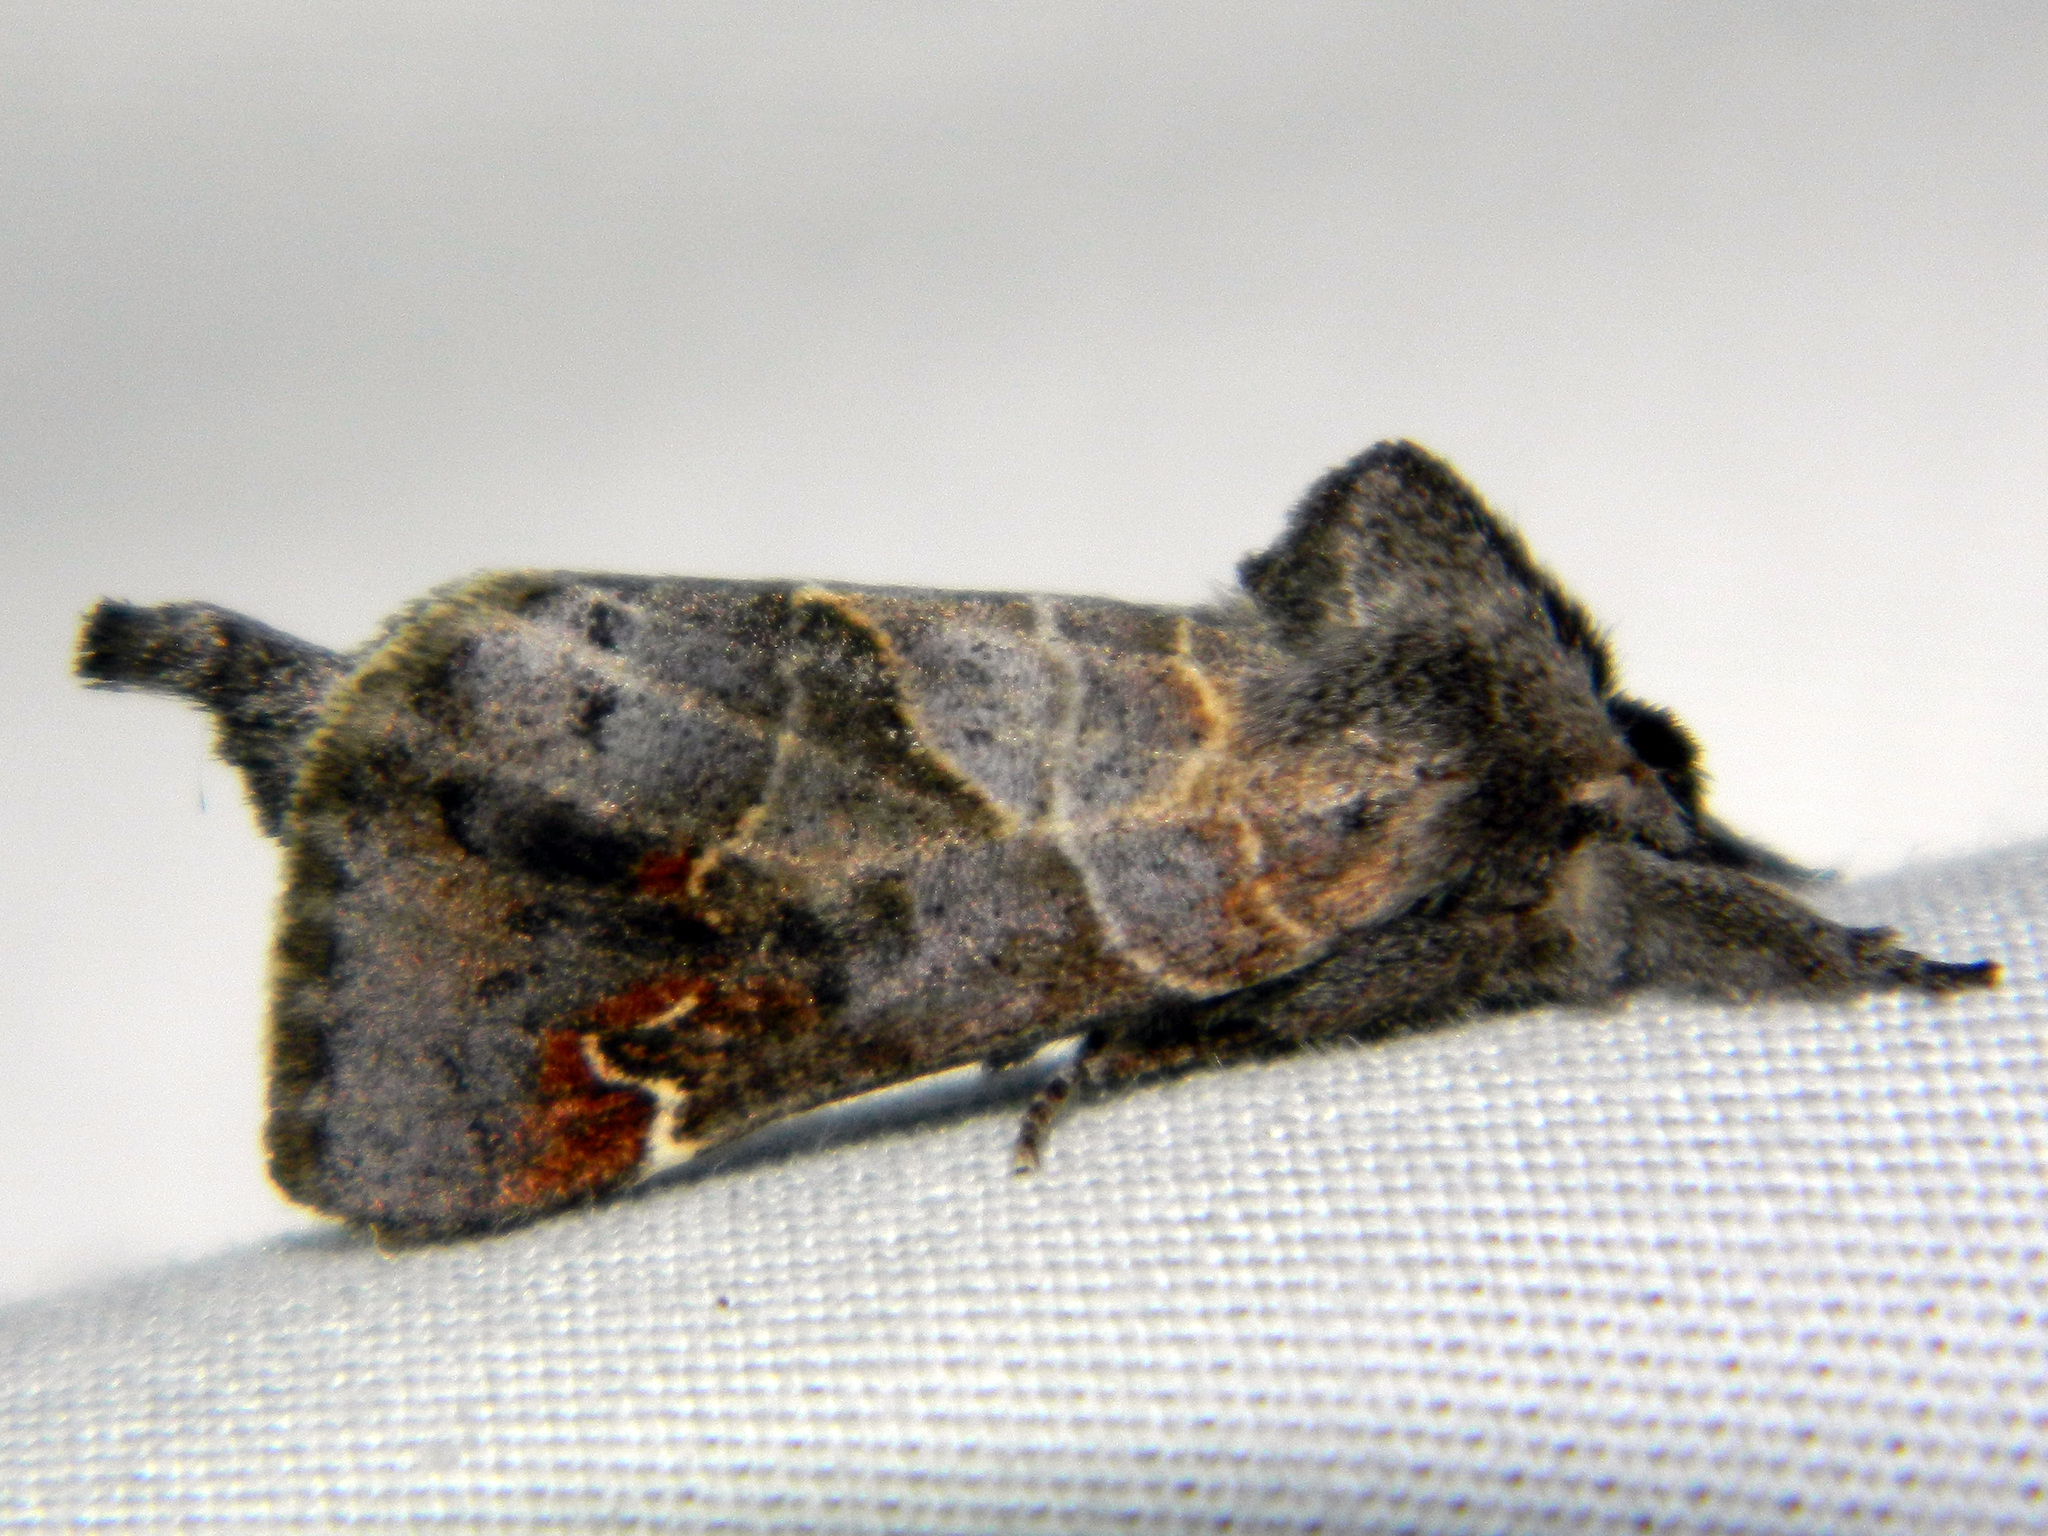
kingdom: Animalia
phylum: Arthropoda
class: Insecta
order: Lepidoptera
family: Notodontidae
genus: Clostera
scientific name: Clostera apicalis
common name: Apical prominent
